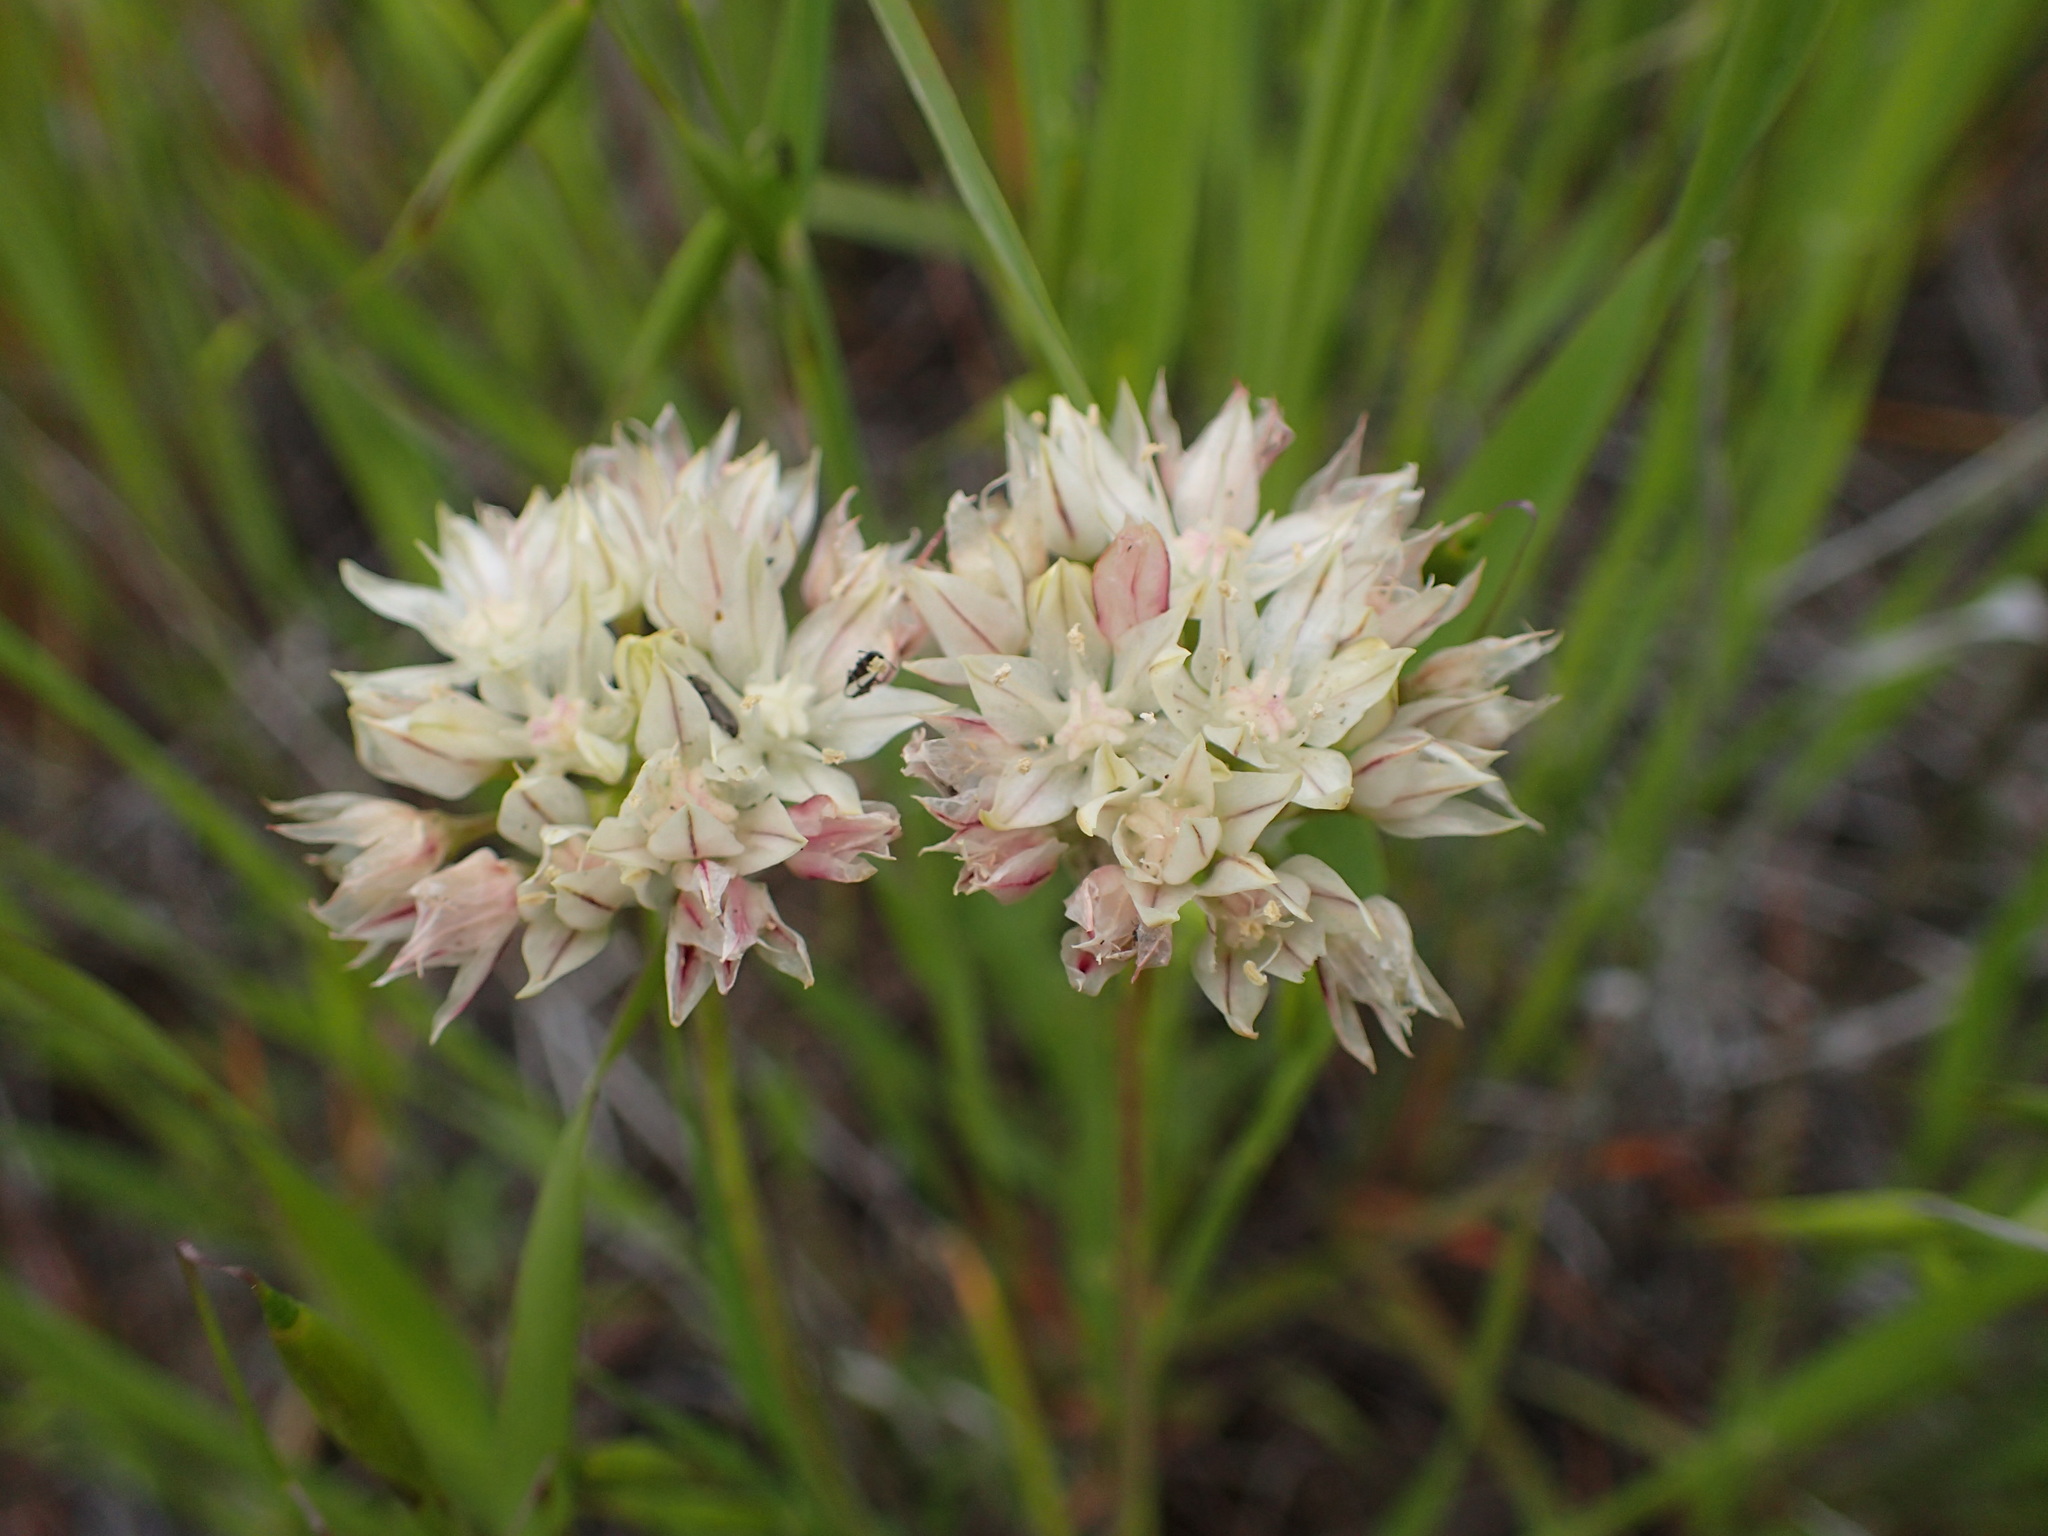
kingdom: Plantae
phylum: Tracheophyta
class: Liliopsida
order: Asparagales
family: Amaryllidaceae
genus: Allium
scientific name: Allium haematochiton
